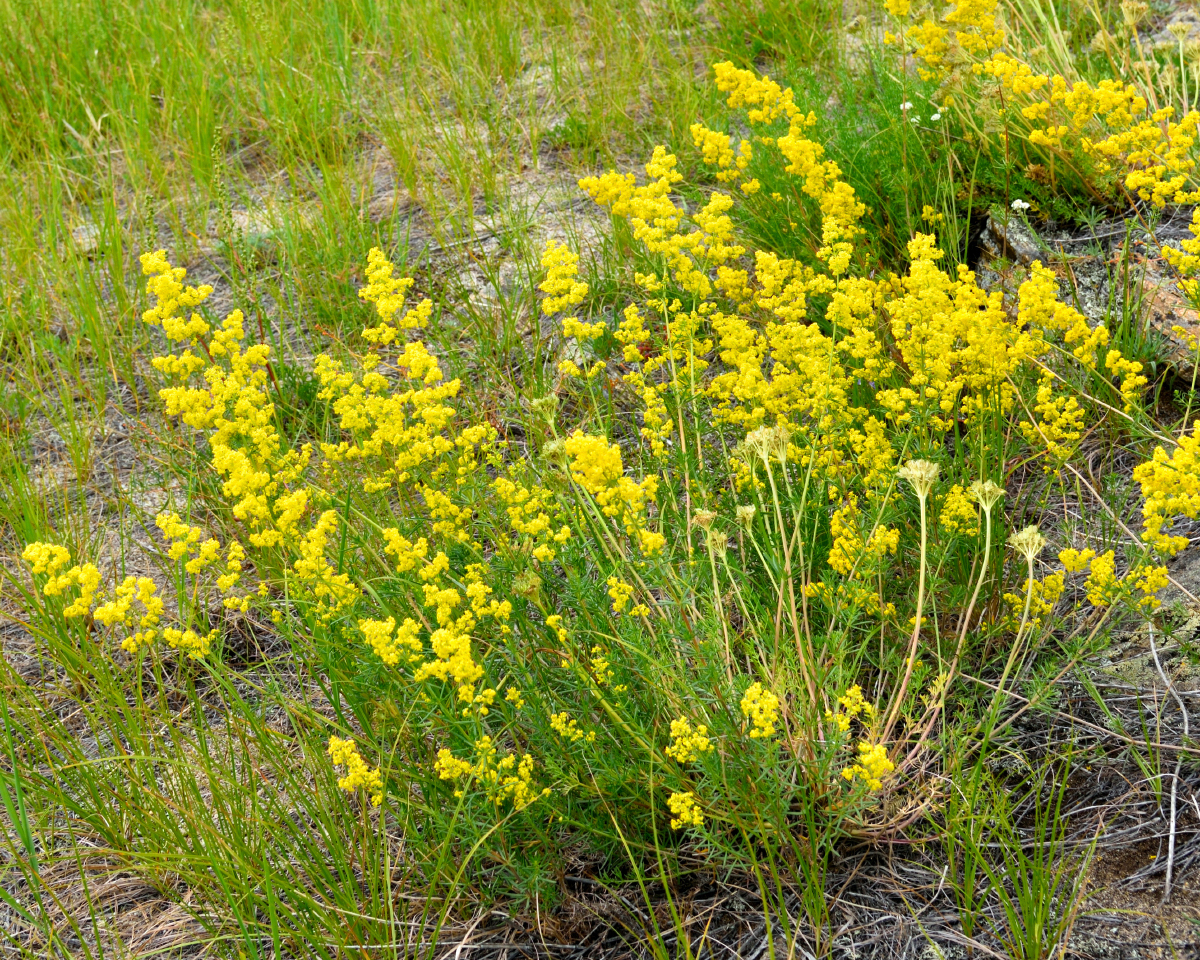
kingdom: Plantae
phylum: Tracheophyta
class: Magnoliopsida
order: Gentianales
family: Rubiaceae
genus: Galium
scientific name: Galium verum
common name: Lady's bedstraw
